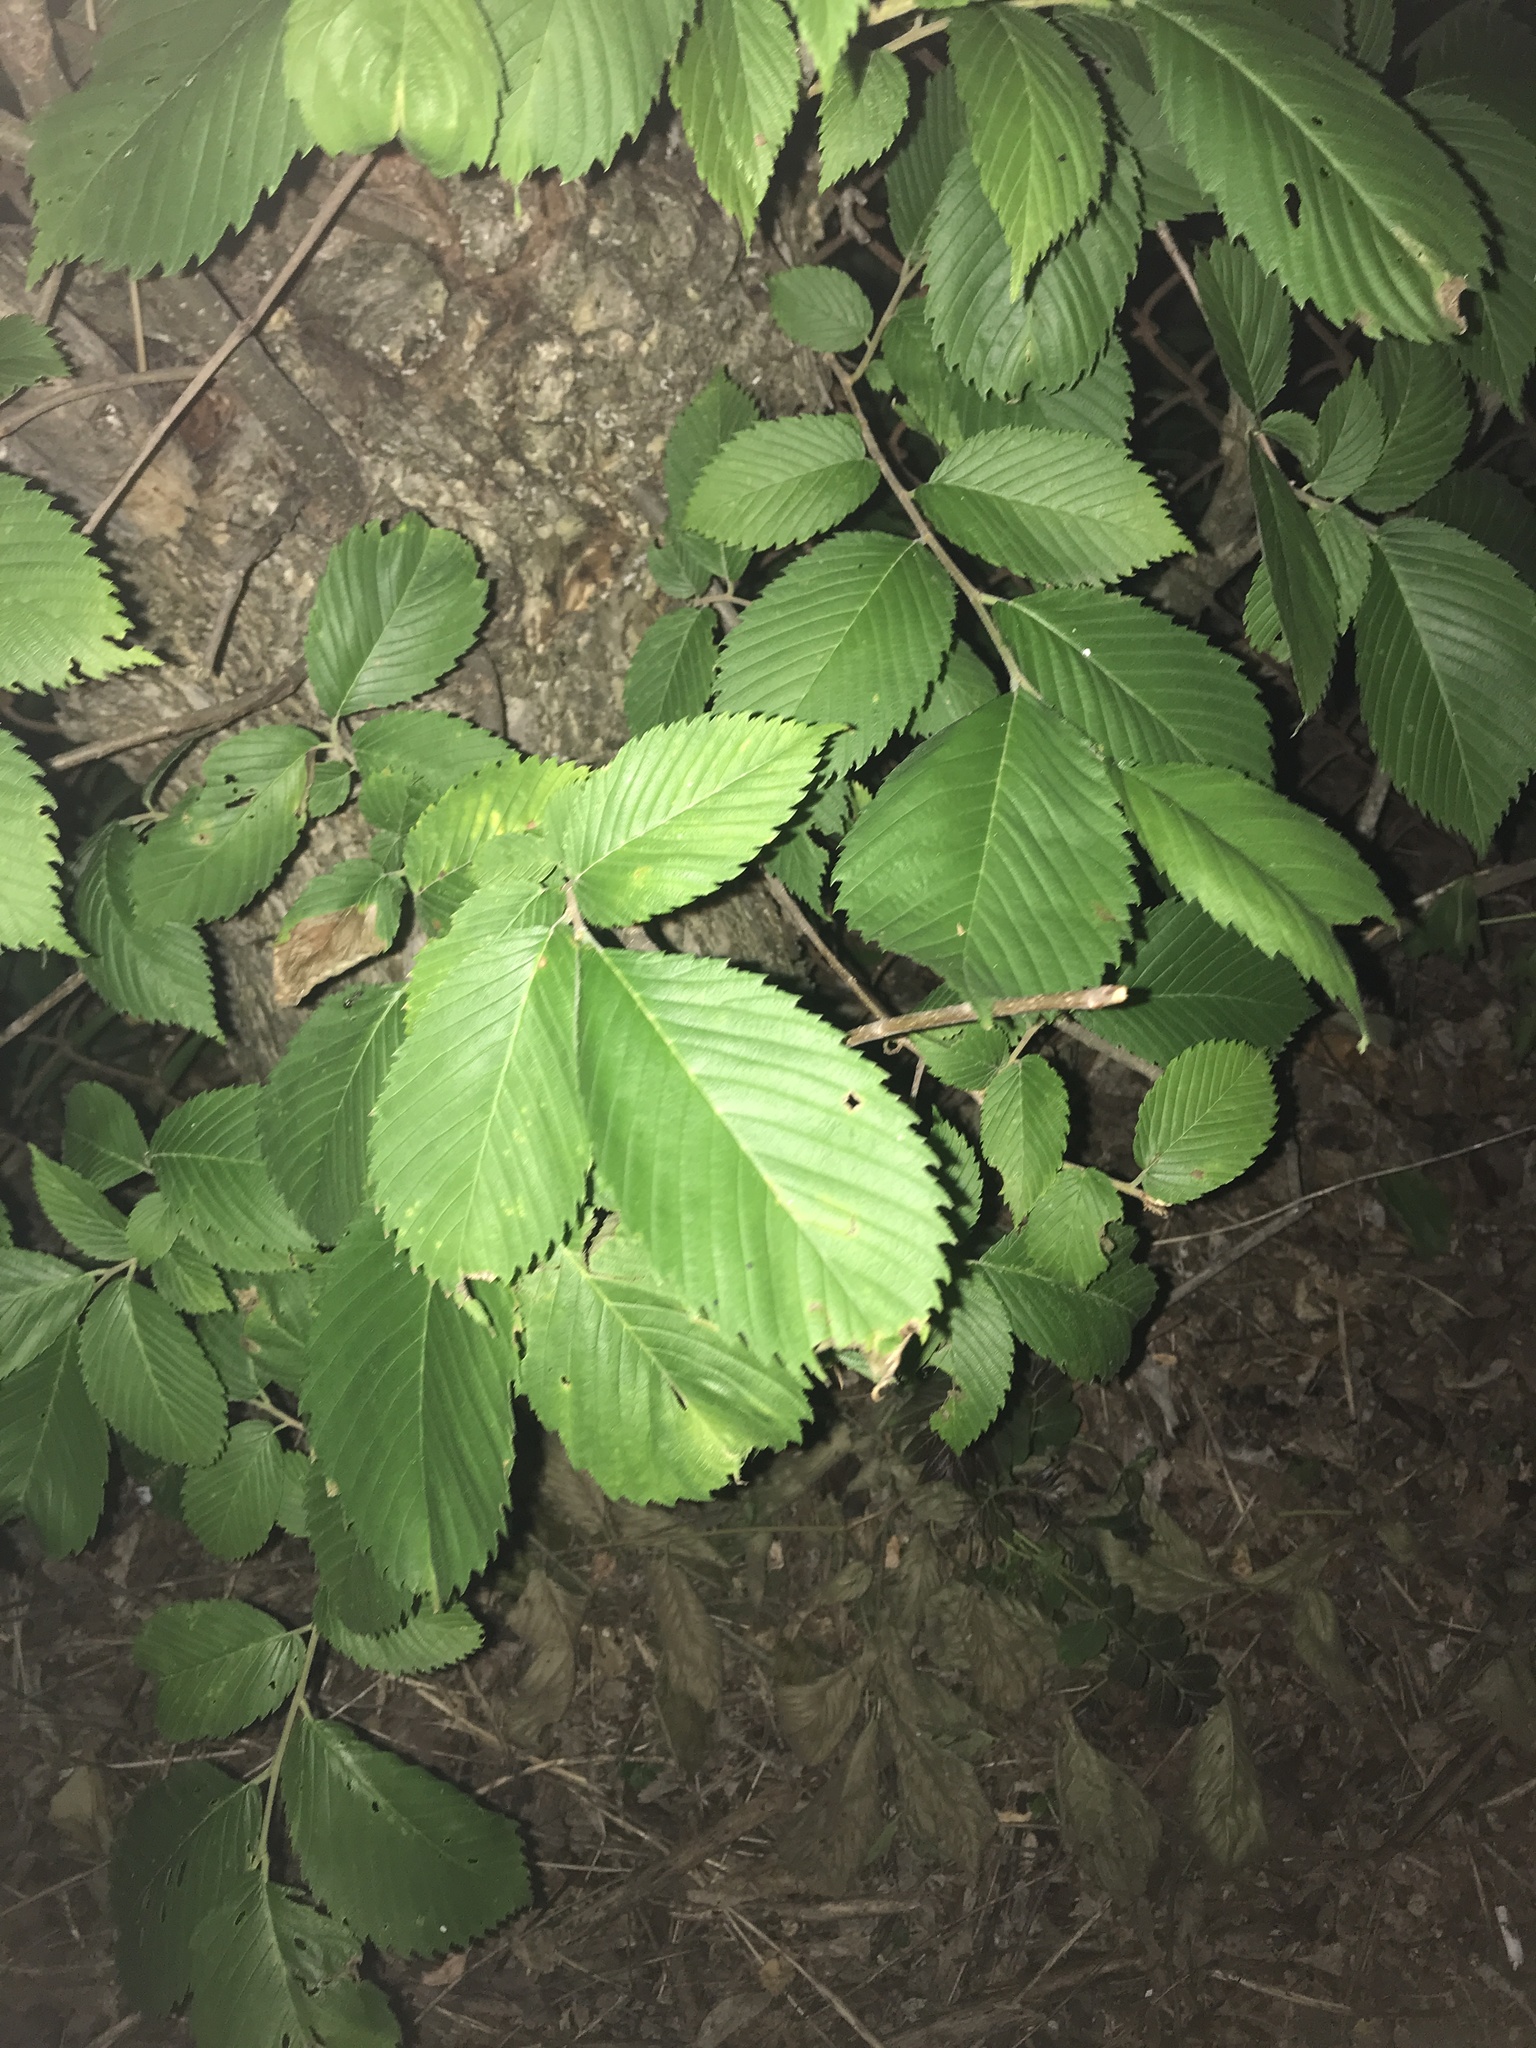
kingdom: Plantae
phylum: Tracheophyta
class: Magnoliopsida
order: Rosales
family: Ulmaceae
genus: Ulmus
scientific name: Ulmus rubra
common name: Slippery elm
